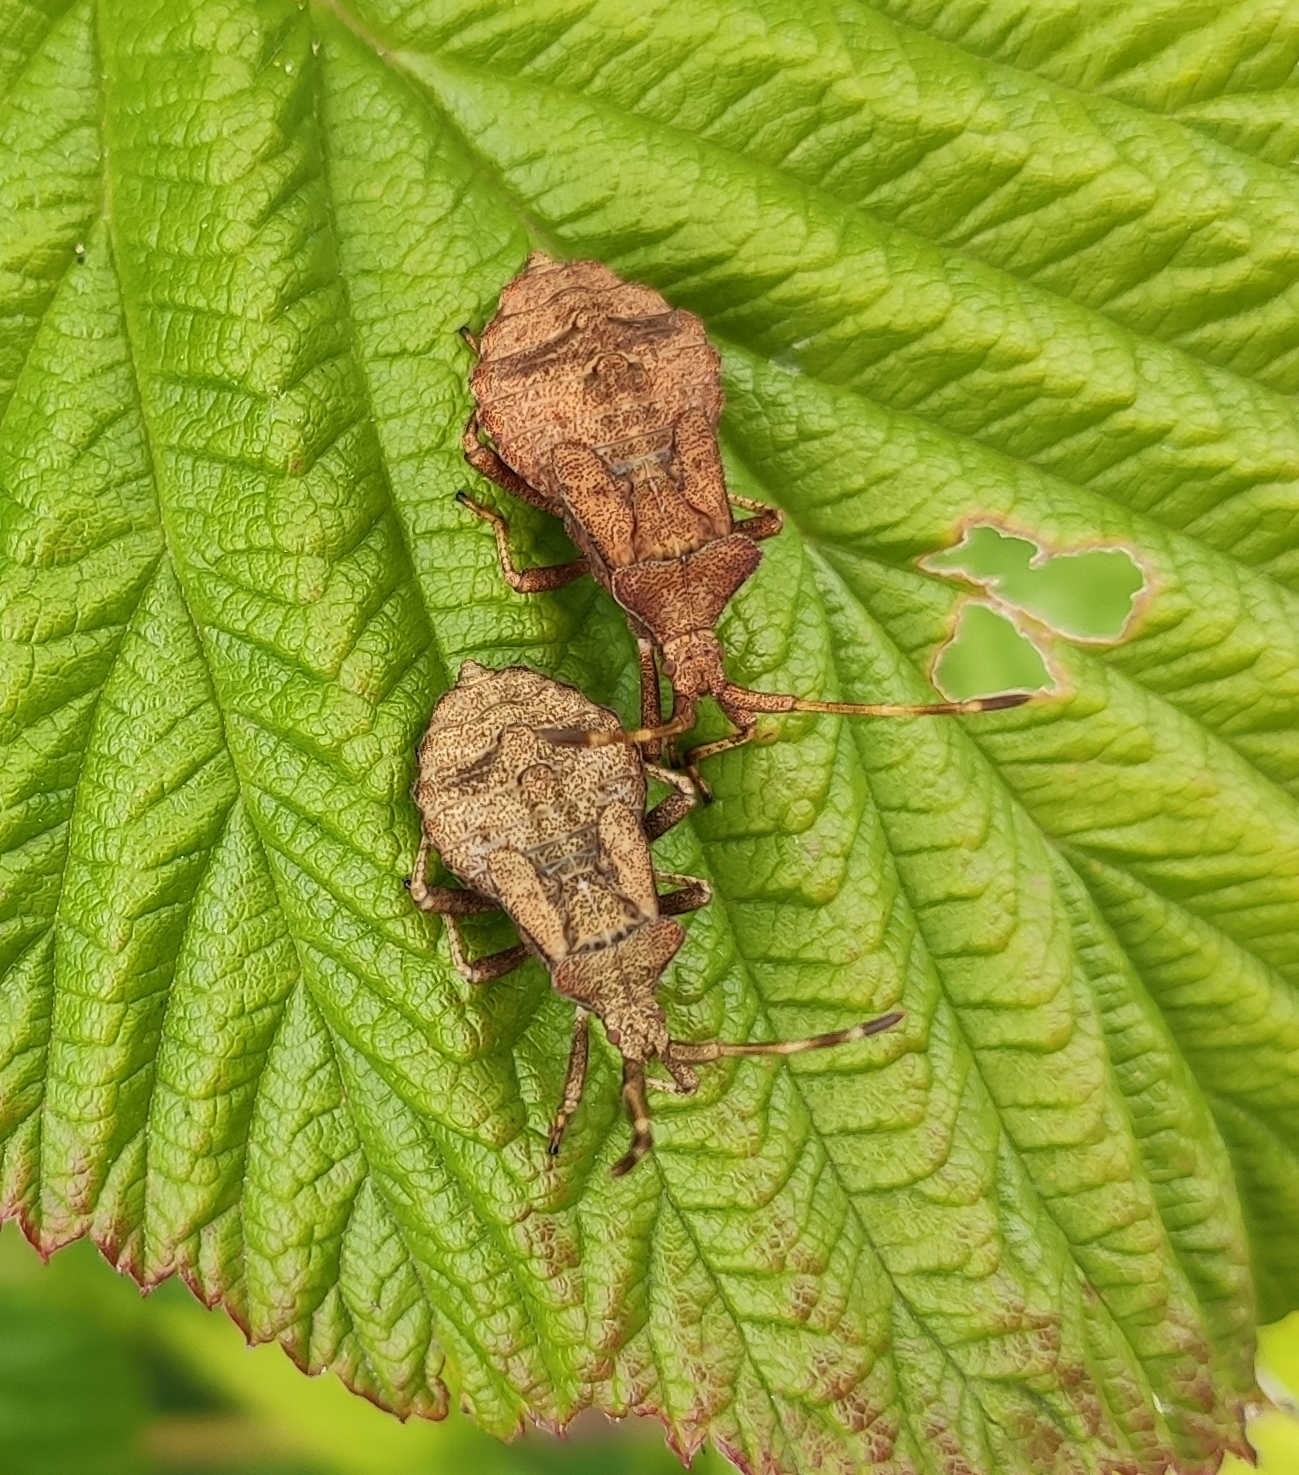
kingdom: Animalia
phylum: Arthropoda
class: Insecta
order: Hemiptera
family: Coreidae
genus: Coreus
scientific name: Coreus marginatus
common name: Dock bug
